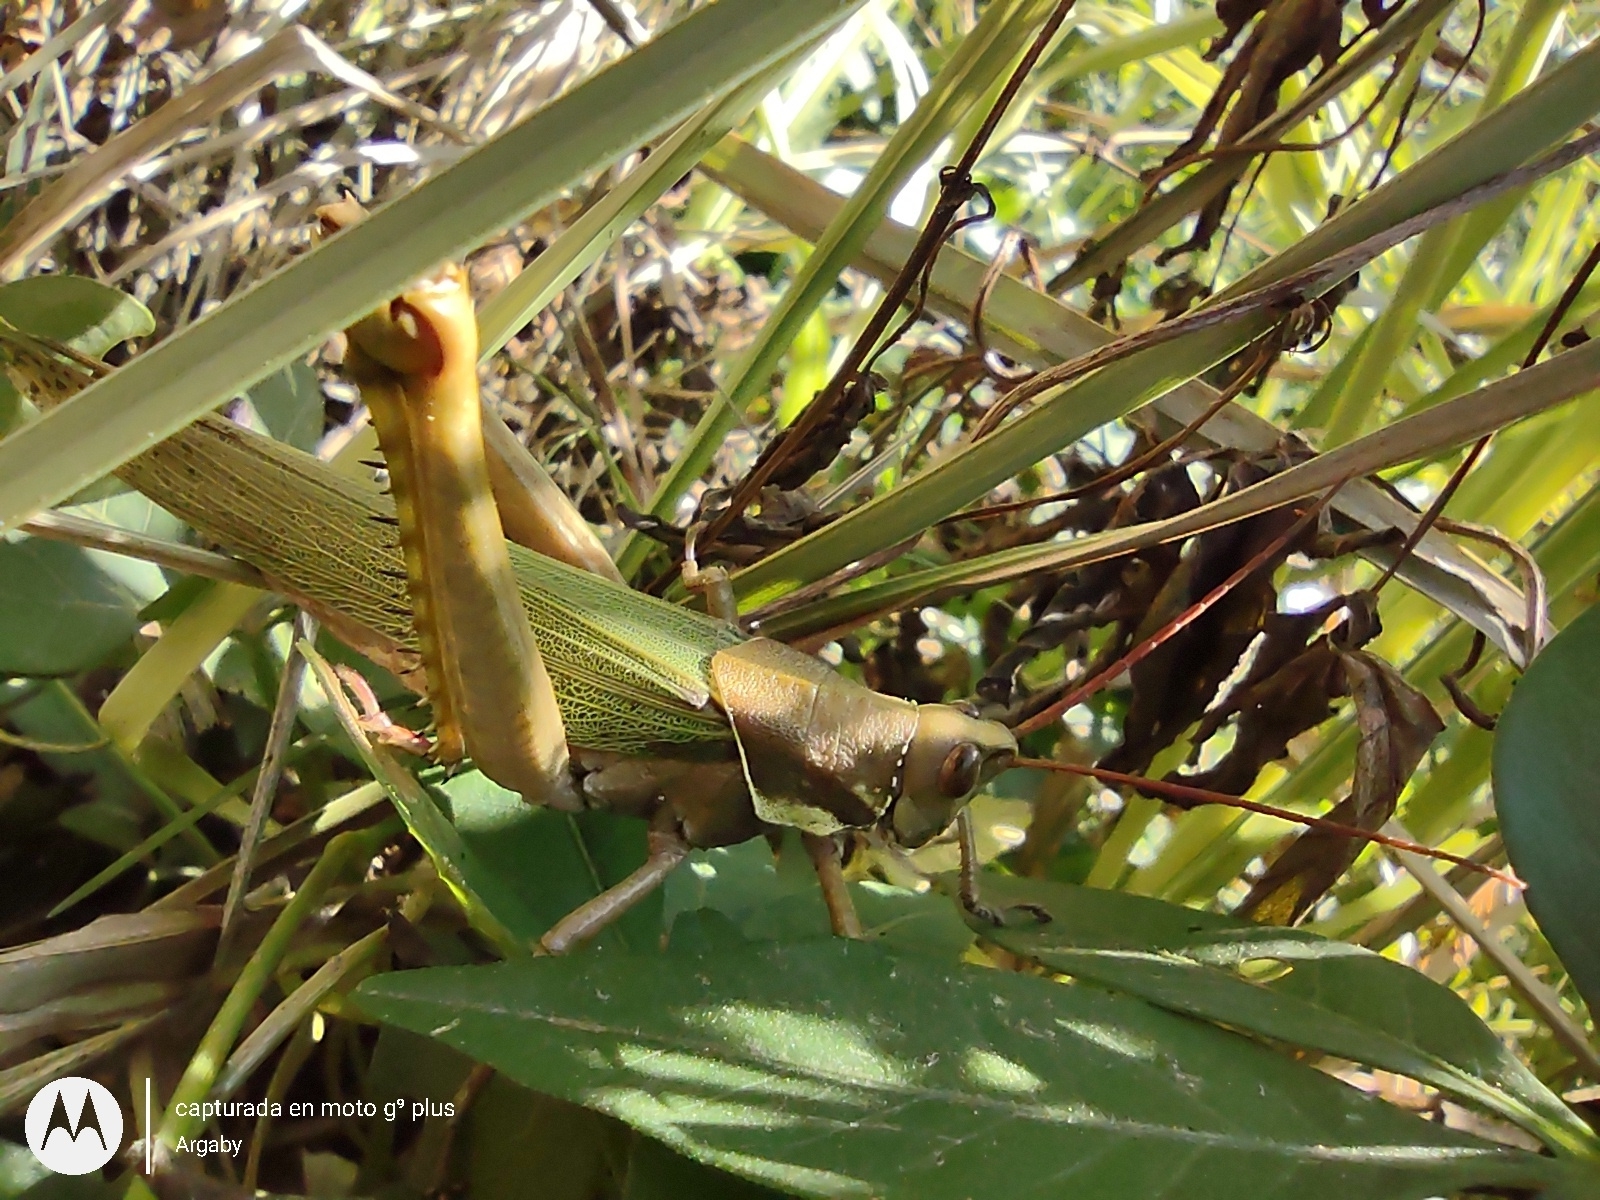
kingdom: Animalia
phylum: Arthropoda
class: Insecta
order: Orthoptera
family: Romaleidae
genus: Coryacris
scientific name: Coryacris angustipennis
